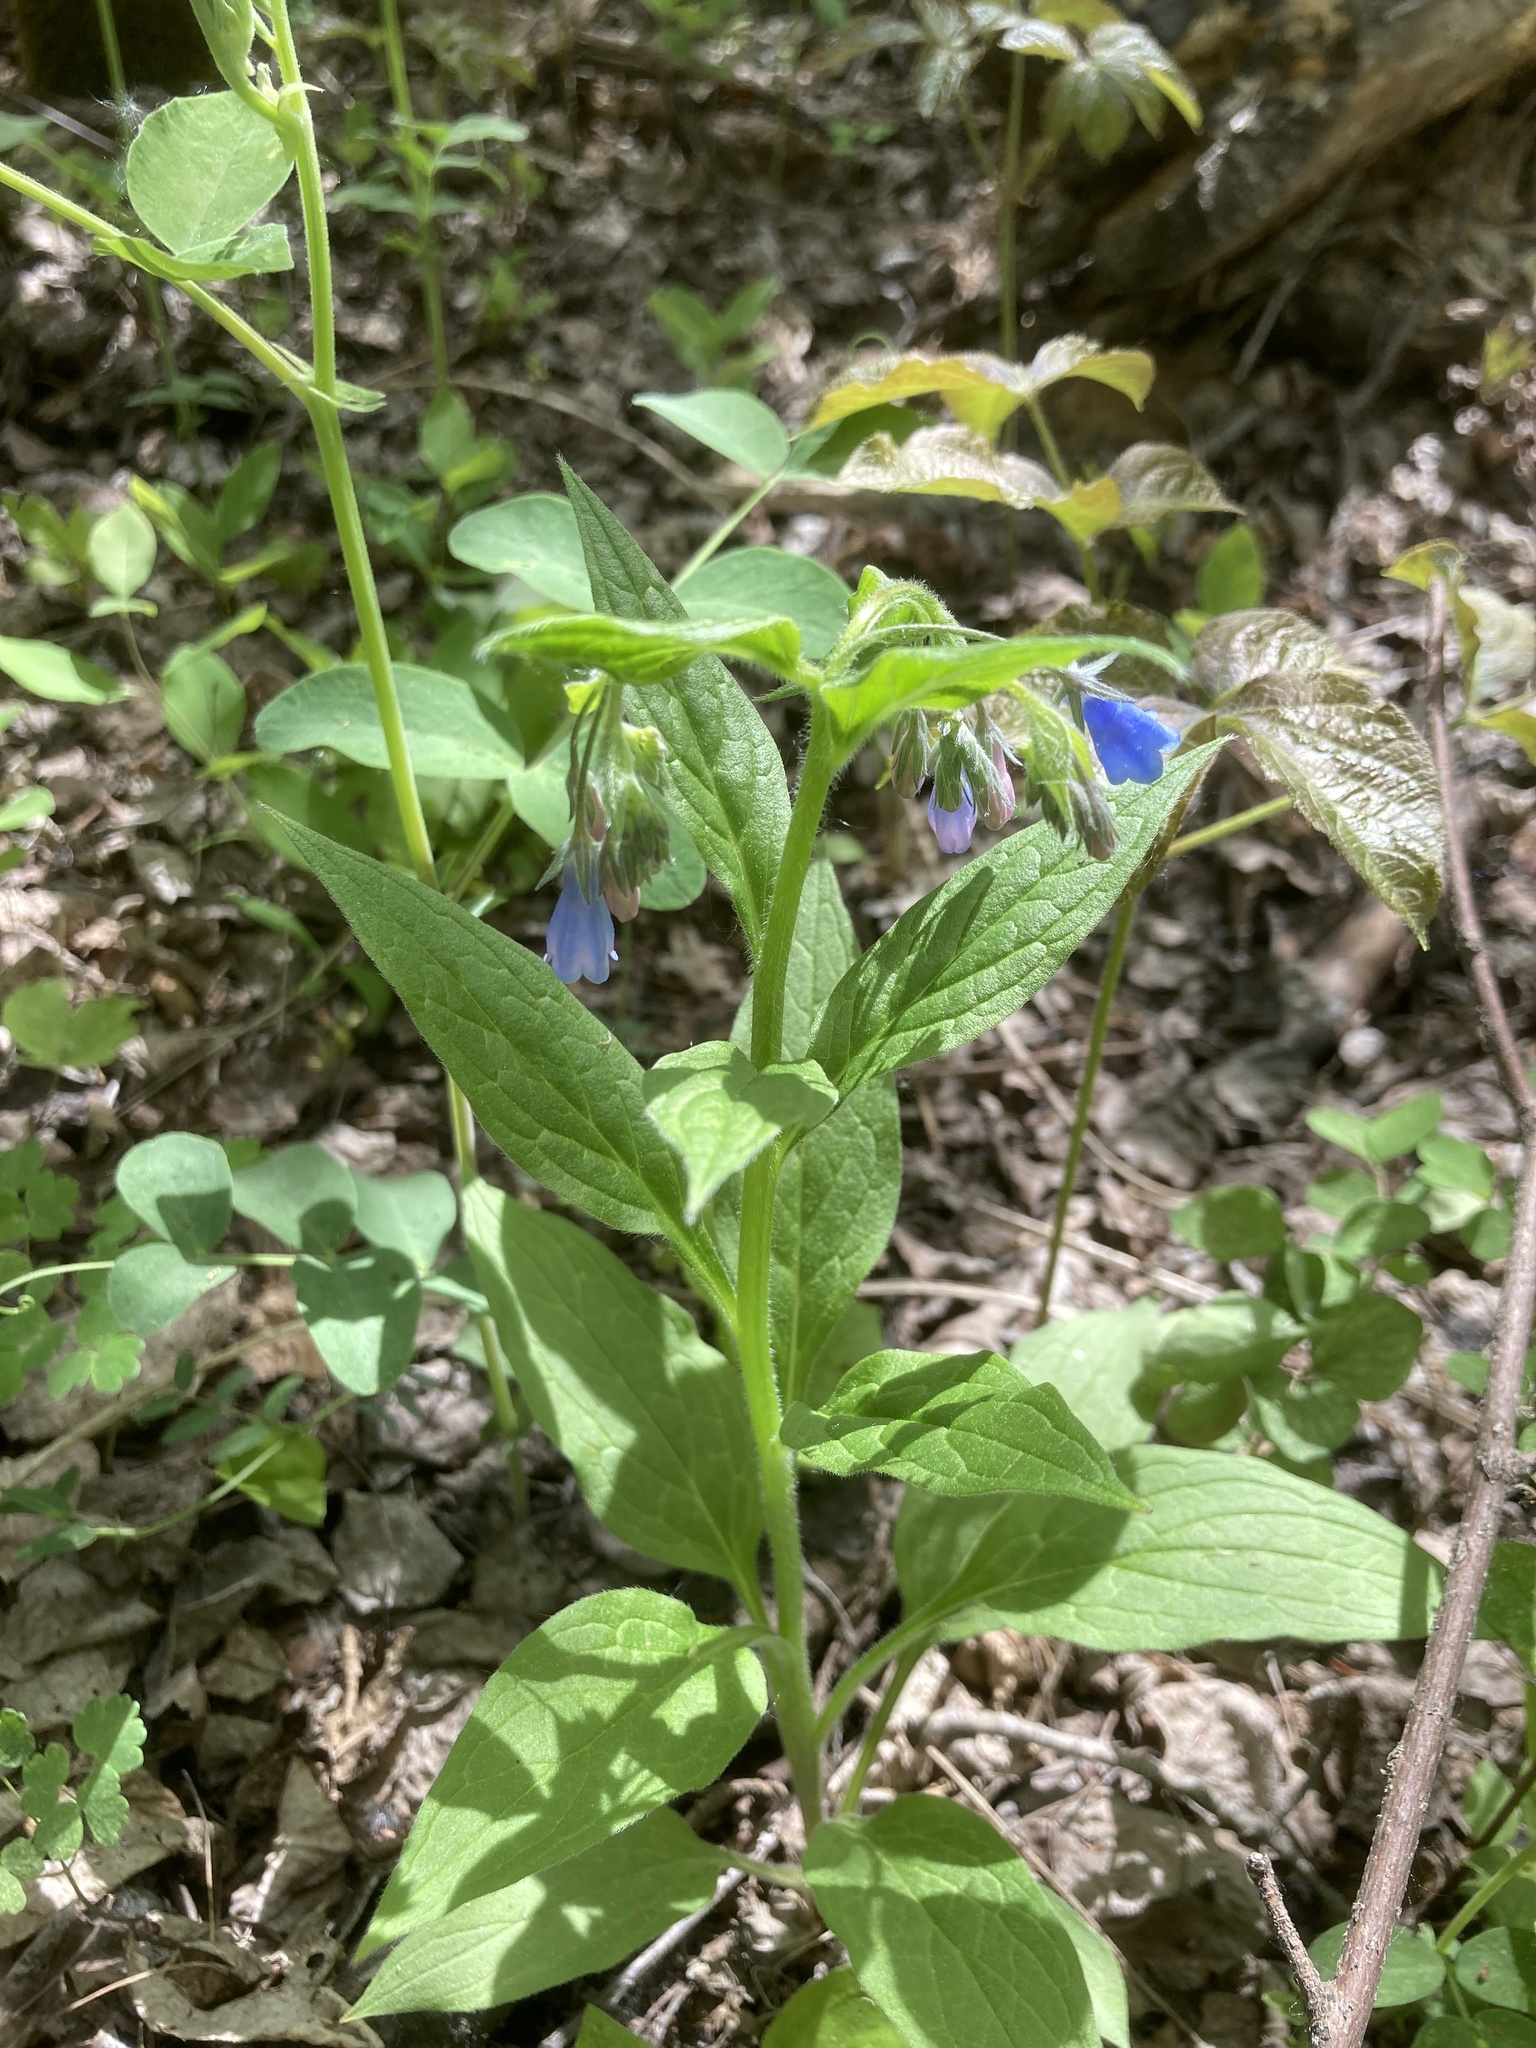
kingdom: Plantae
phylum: Tracheophyta
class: Magnoliopsida
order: Boraginales
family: Boraginaceae
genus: Mertensia
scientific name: Mertensia paniculata
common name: Panicled bluebells
